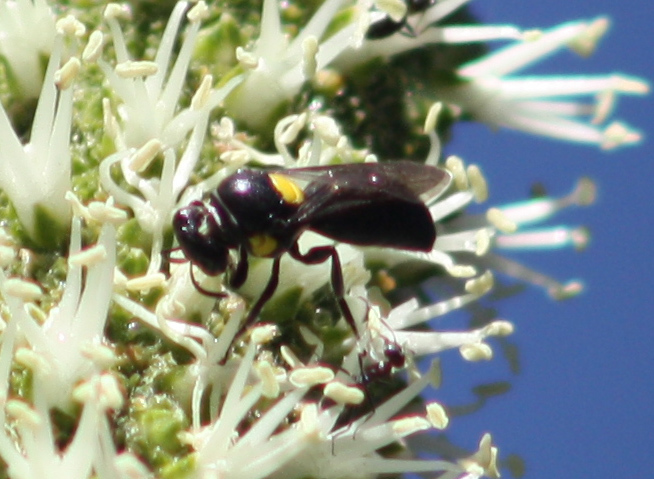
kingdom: Animalia
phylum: Arthropoda
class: Insecta
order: Hymenoptera
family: Colletidae
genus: Meroglossa
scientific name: Meroglossa itamuca
